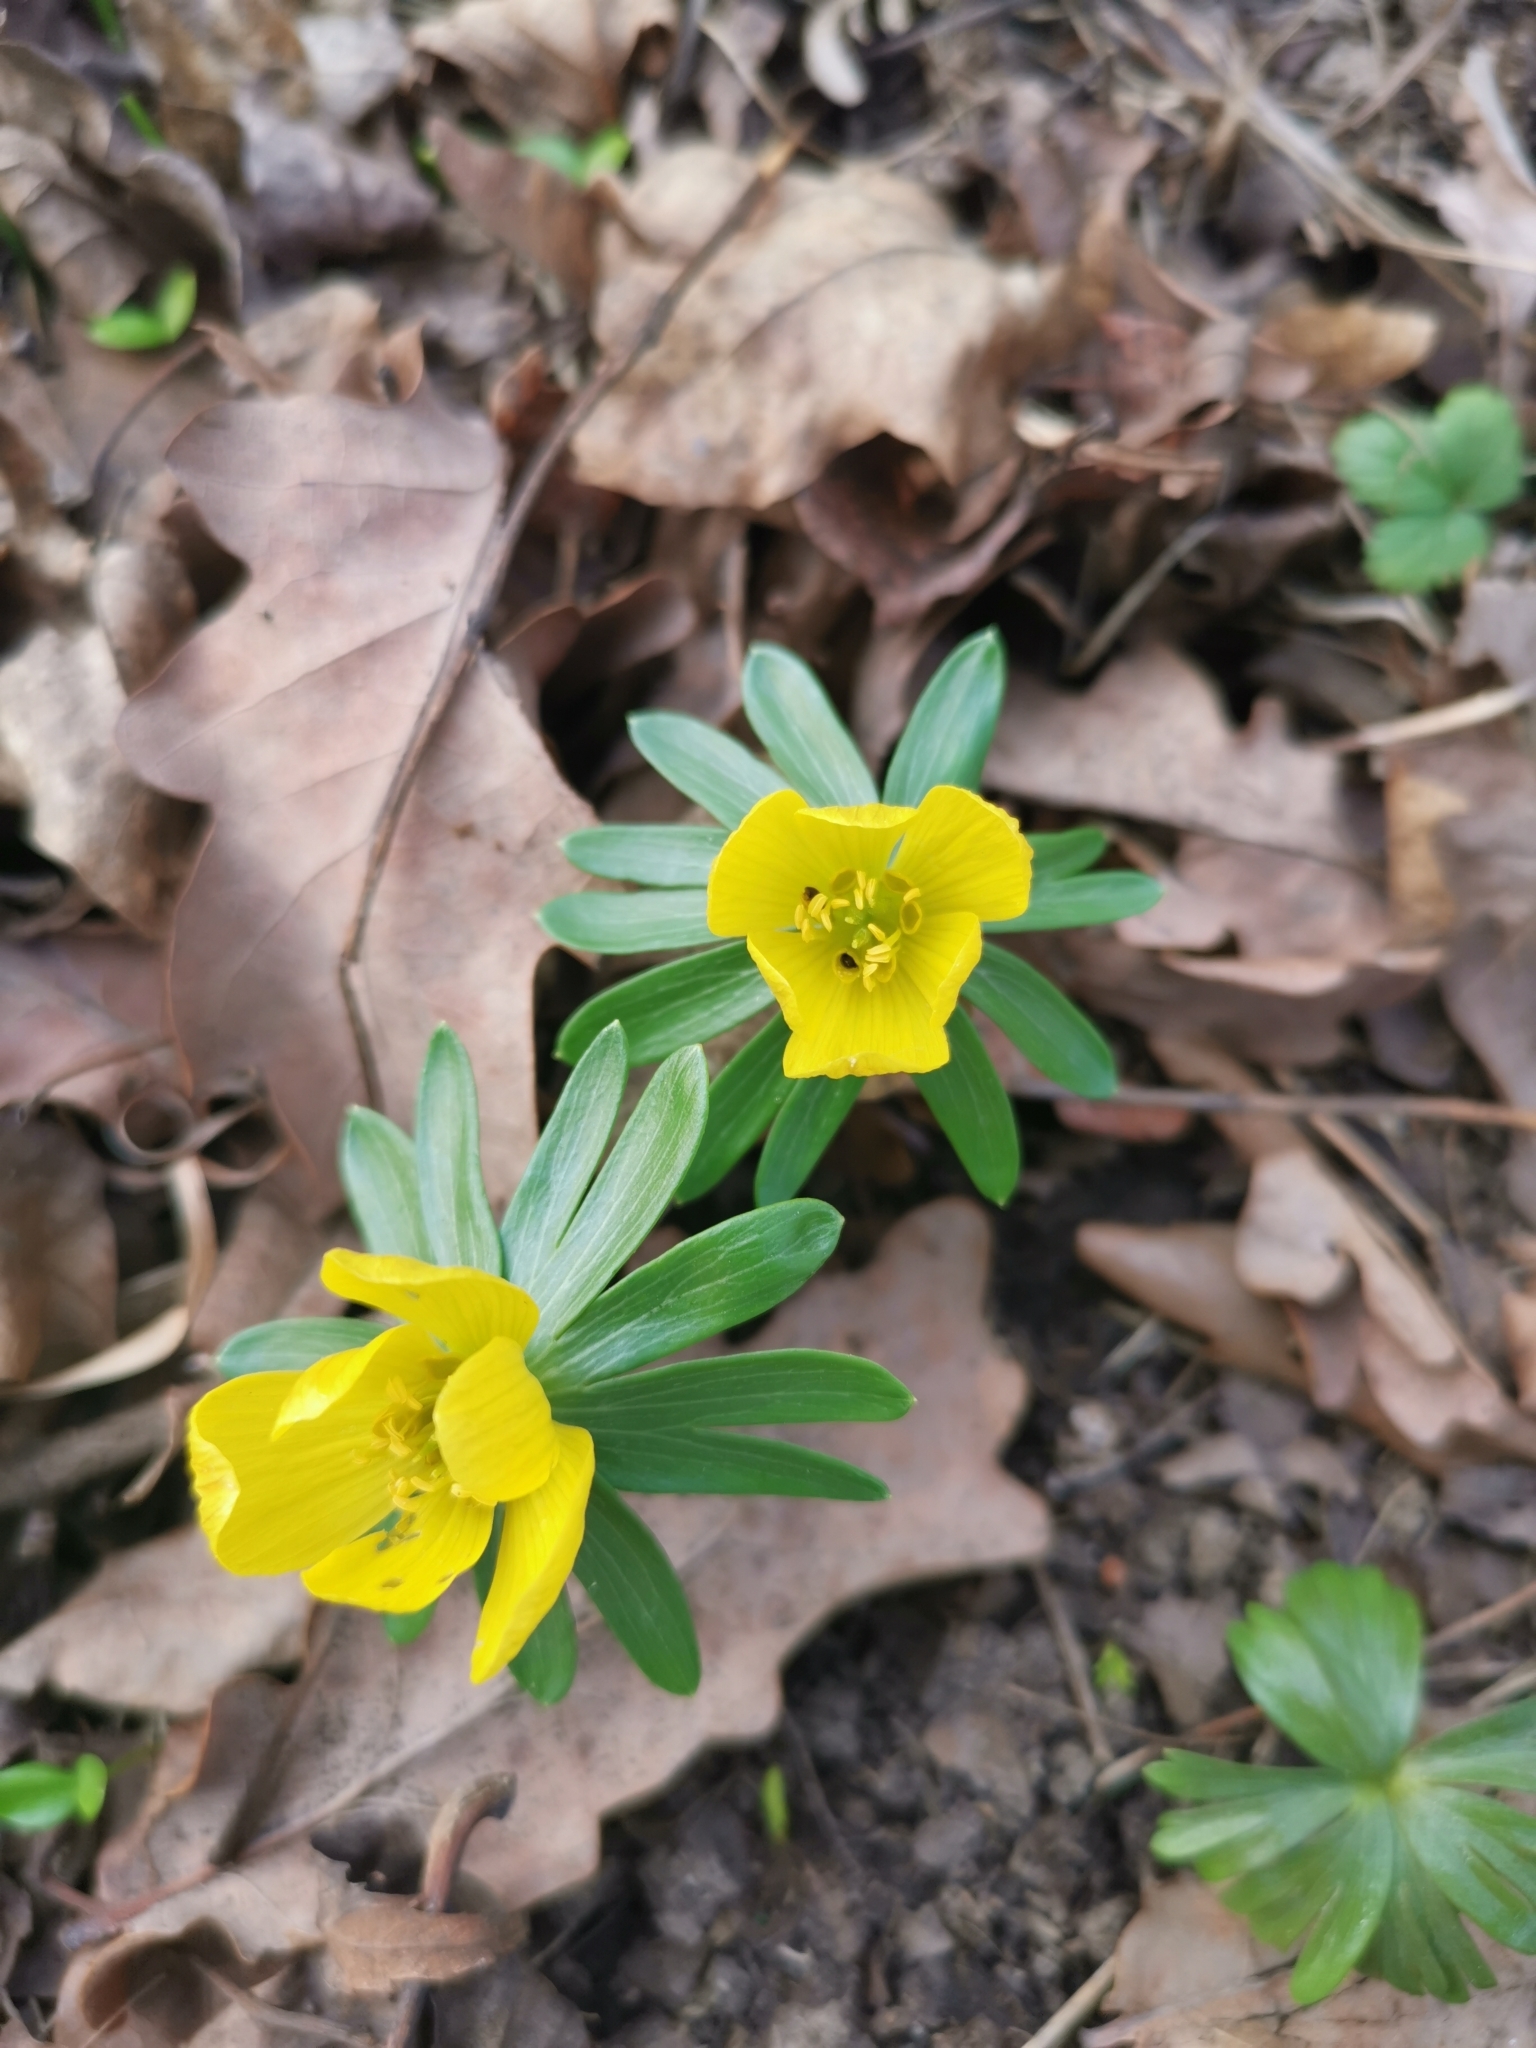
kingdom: Plantae
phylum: Tracheophyta
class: Magnoliopsida
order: Ranunculales
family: Ranunculaceae
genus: Eranthis
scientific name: Eranthis hyemalis
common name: Winter aconite
